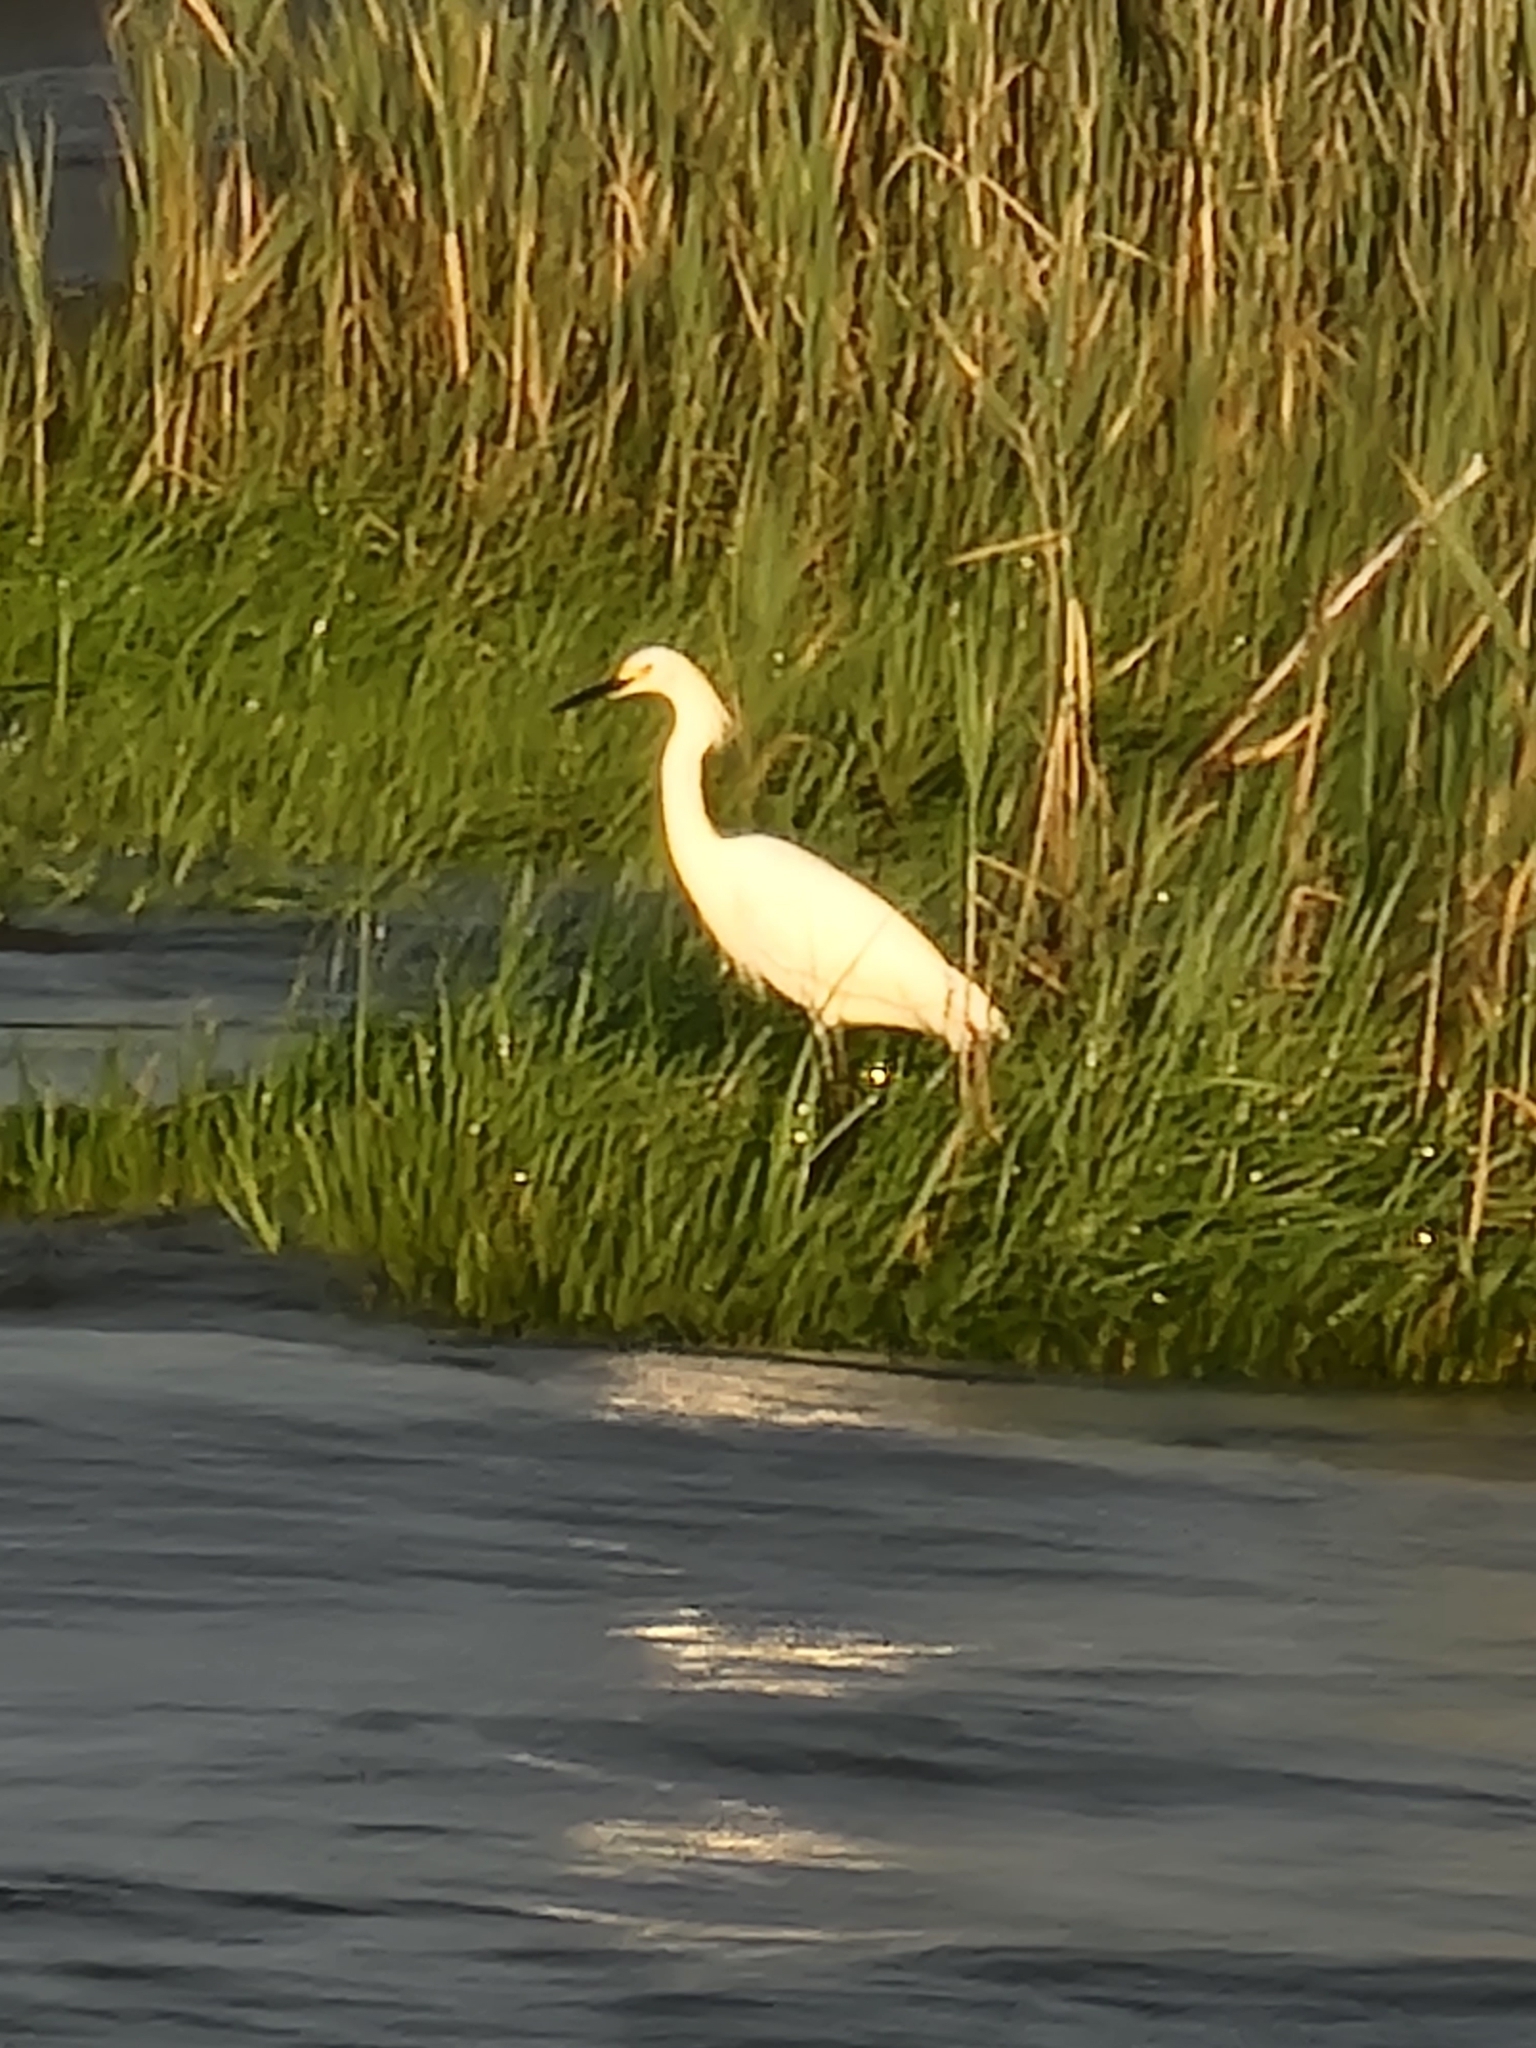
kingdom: Animalia
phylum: Chordata
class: Aves
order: Pelecaniformes
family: Ardeidae
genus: Egretta
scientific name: Egretta thula
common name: Snowy egret
